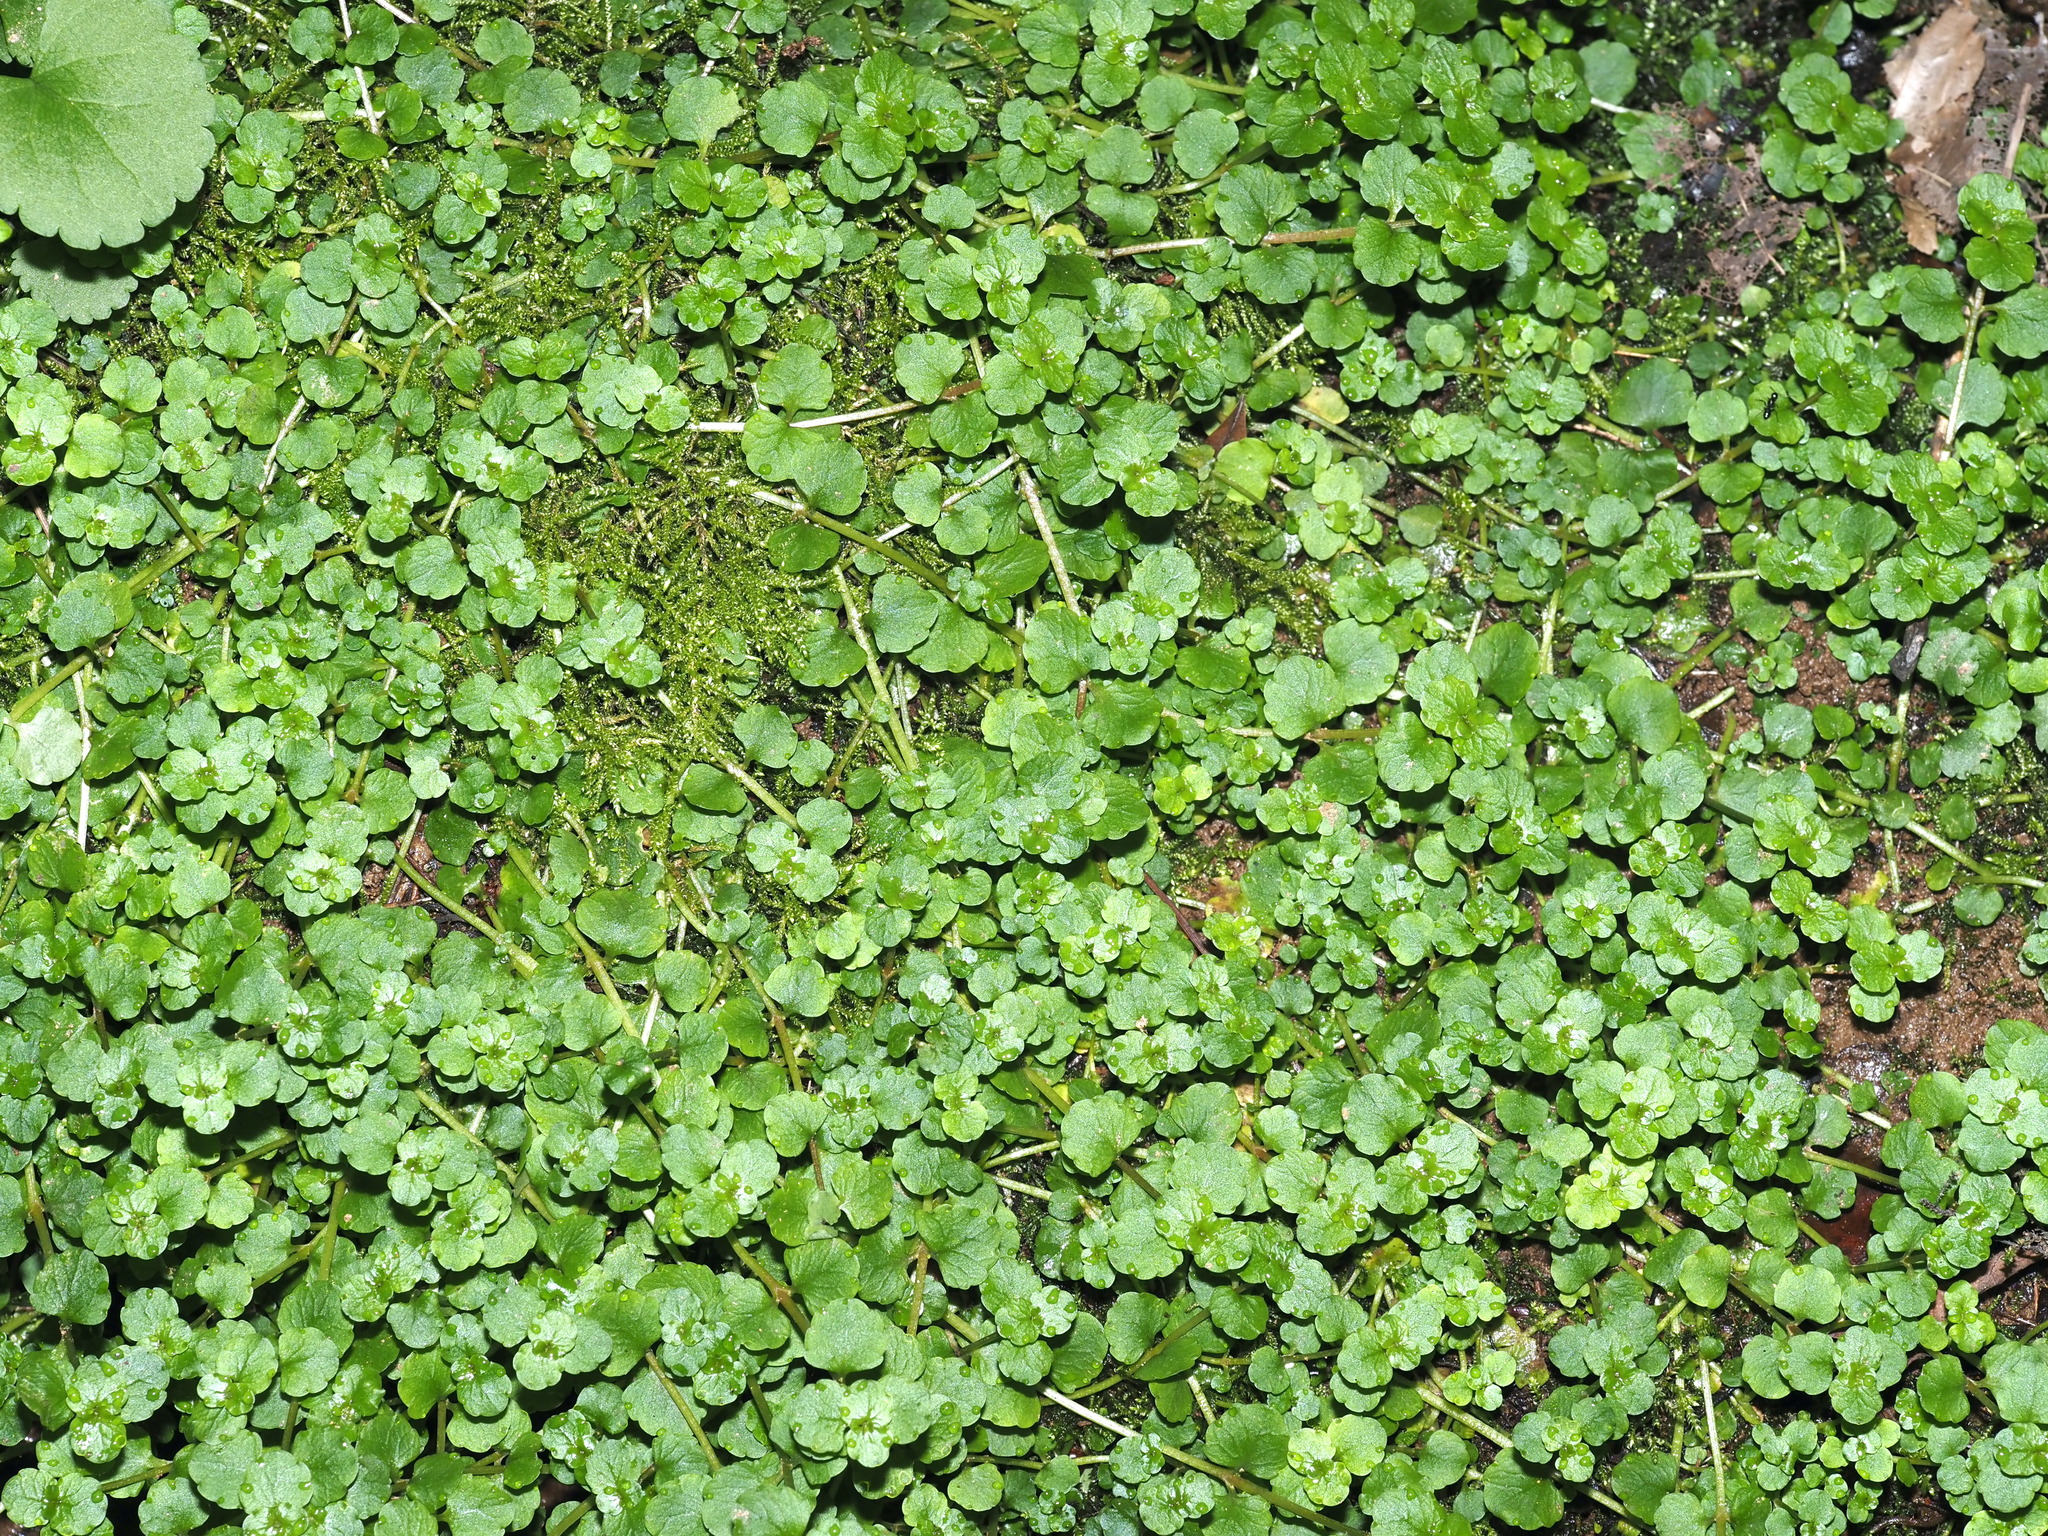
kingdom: Plantae
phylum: Tracheophyta
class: Magnoliopsida
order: Saxifragales
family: Saxifragaceae
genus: Chrysosplenium
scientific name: Chrysosplenium americanum
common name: American golden-saxifrage
